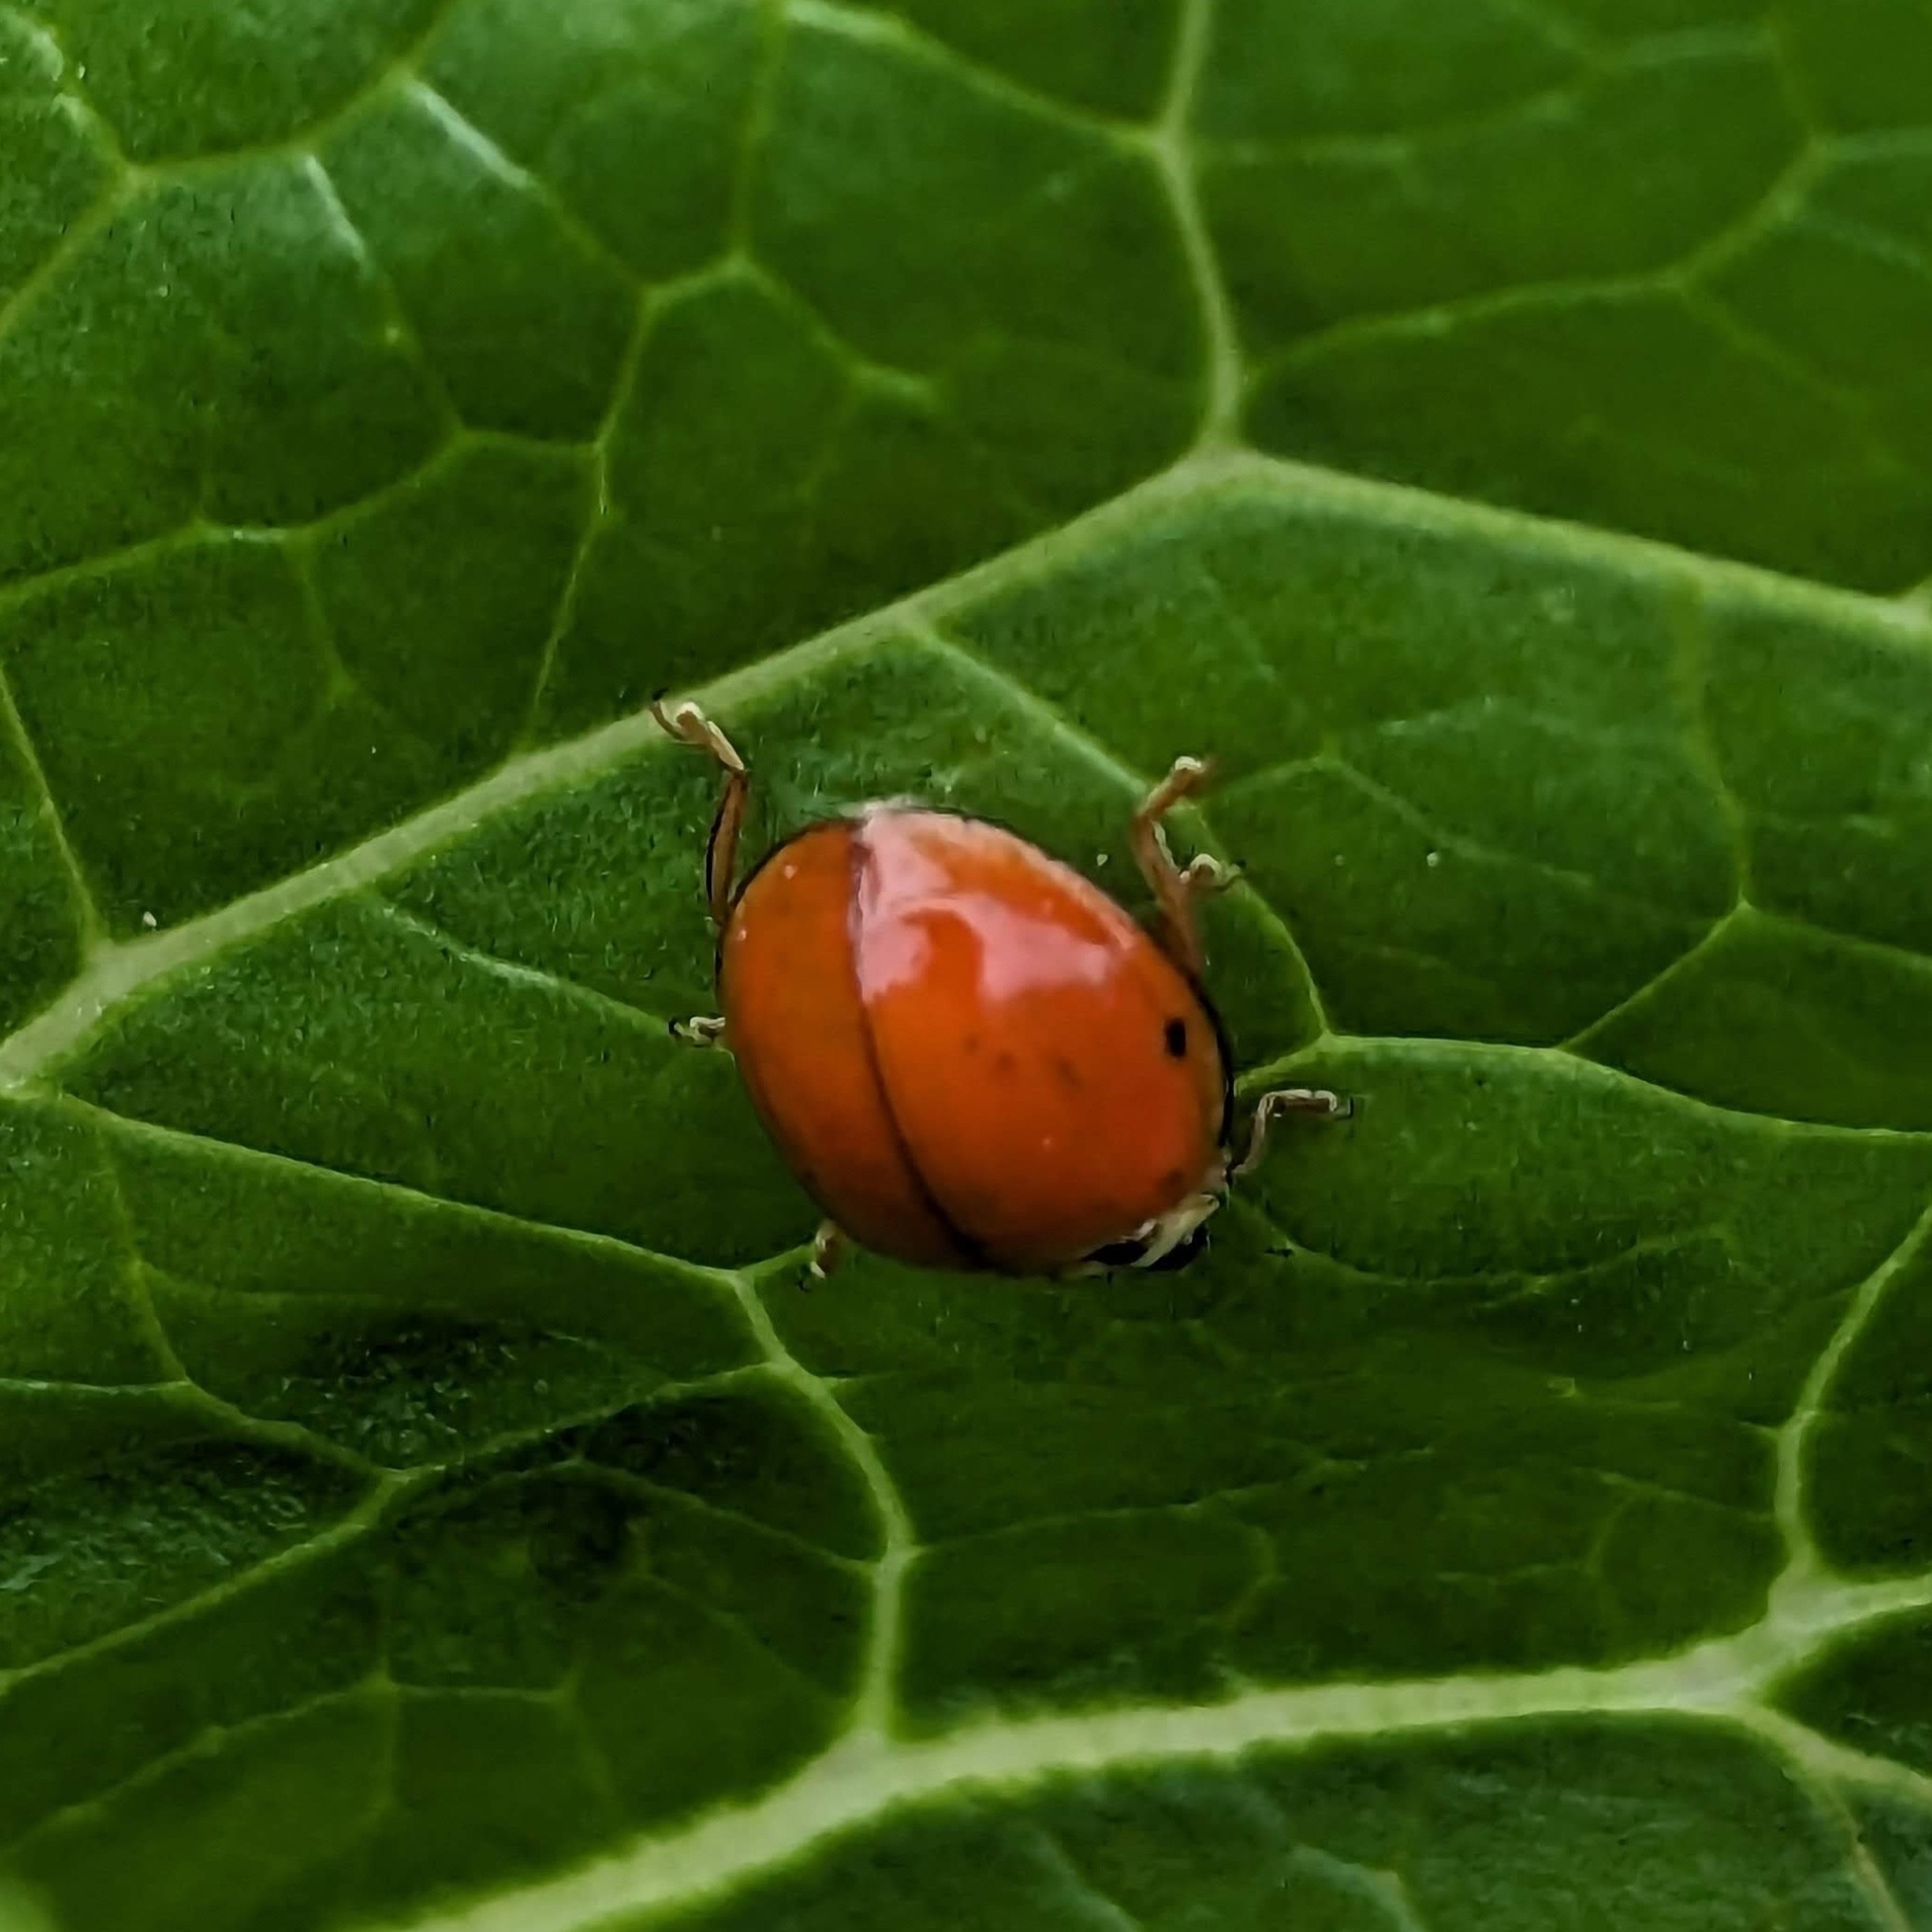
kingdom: Animalia
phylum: Arthropoda
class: Insecta
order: Coleoptera
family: Coccinellidae
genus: Harmonia
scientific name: Harmonia axyridis
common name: Harlequin ladybird
